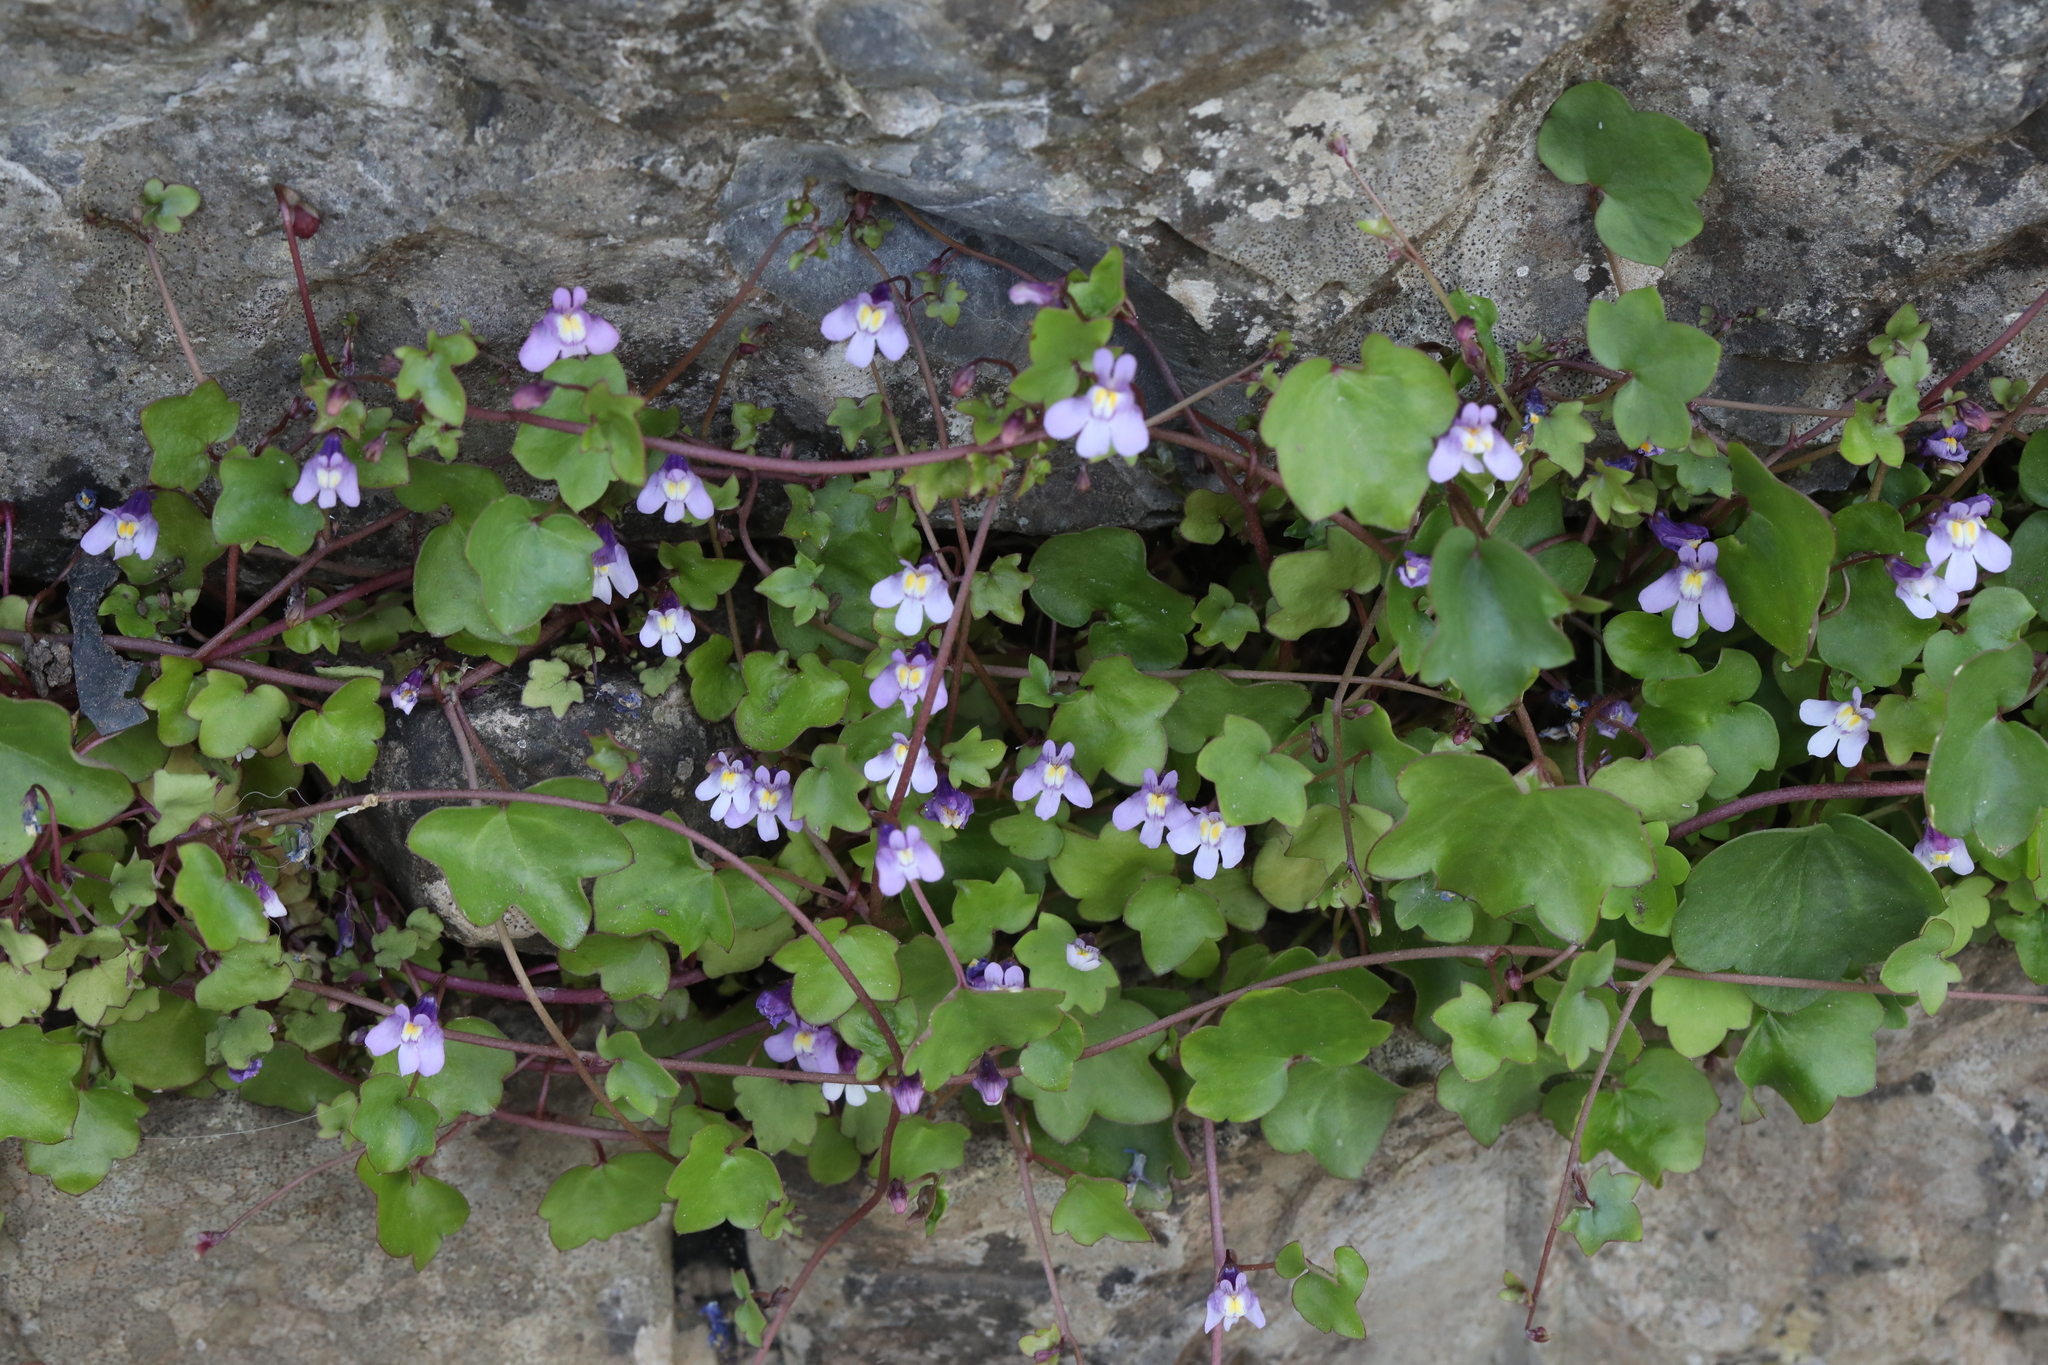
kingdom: Plantae
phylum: Tracheophyta
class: Magnoliopsida
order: Lamiales
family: Plantaginaceae
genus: Cymbalaria
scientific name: Cymbalaria muralis
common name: Ivy-leaved toadflax
